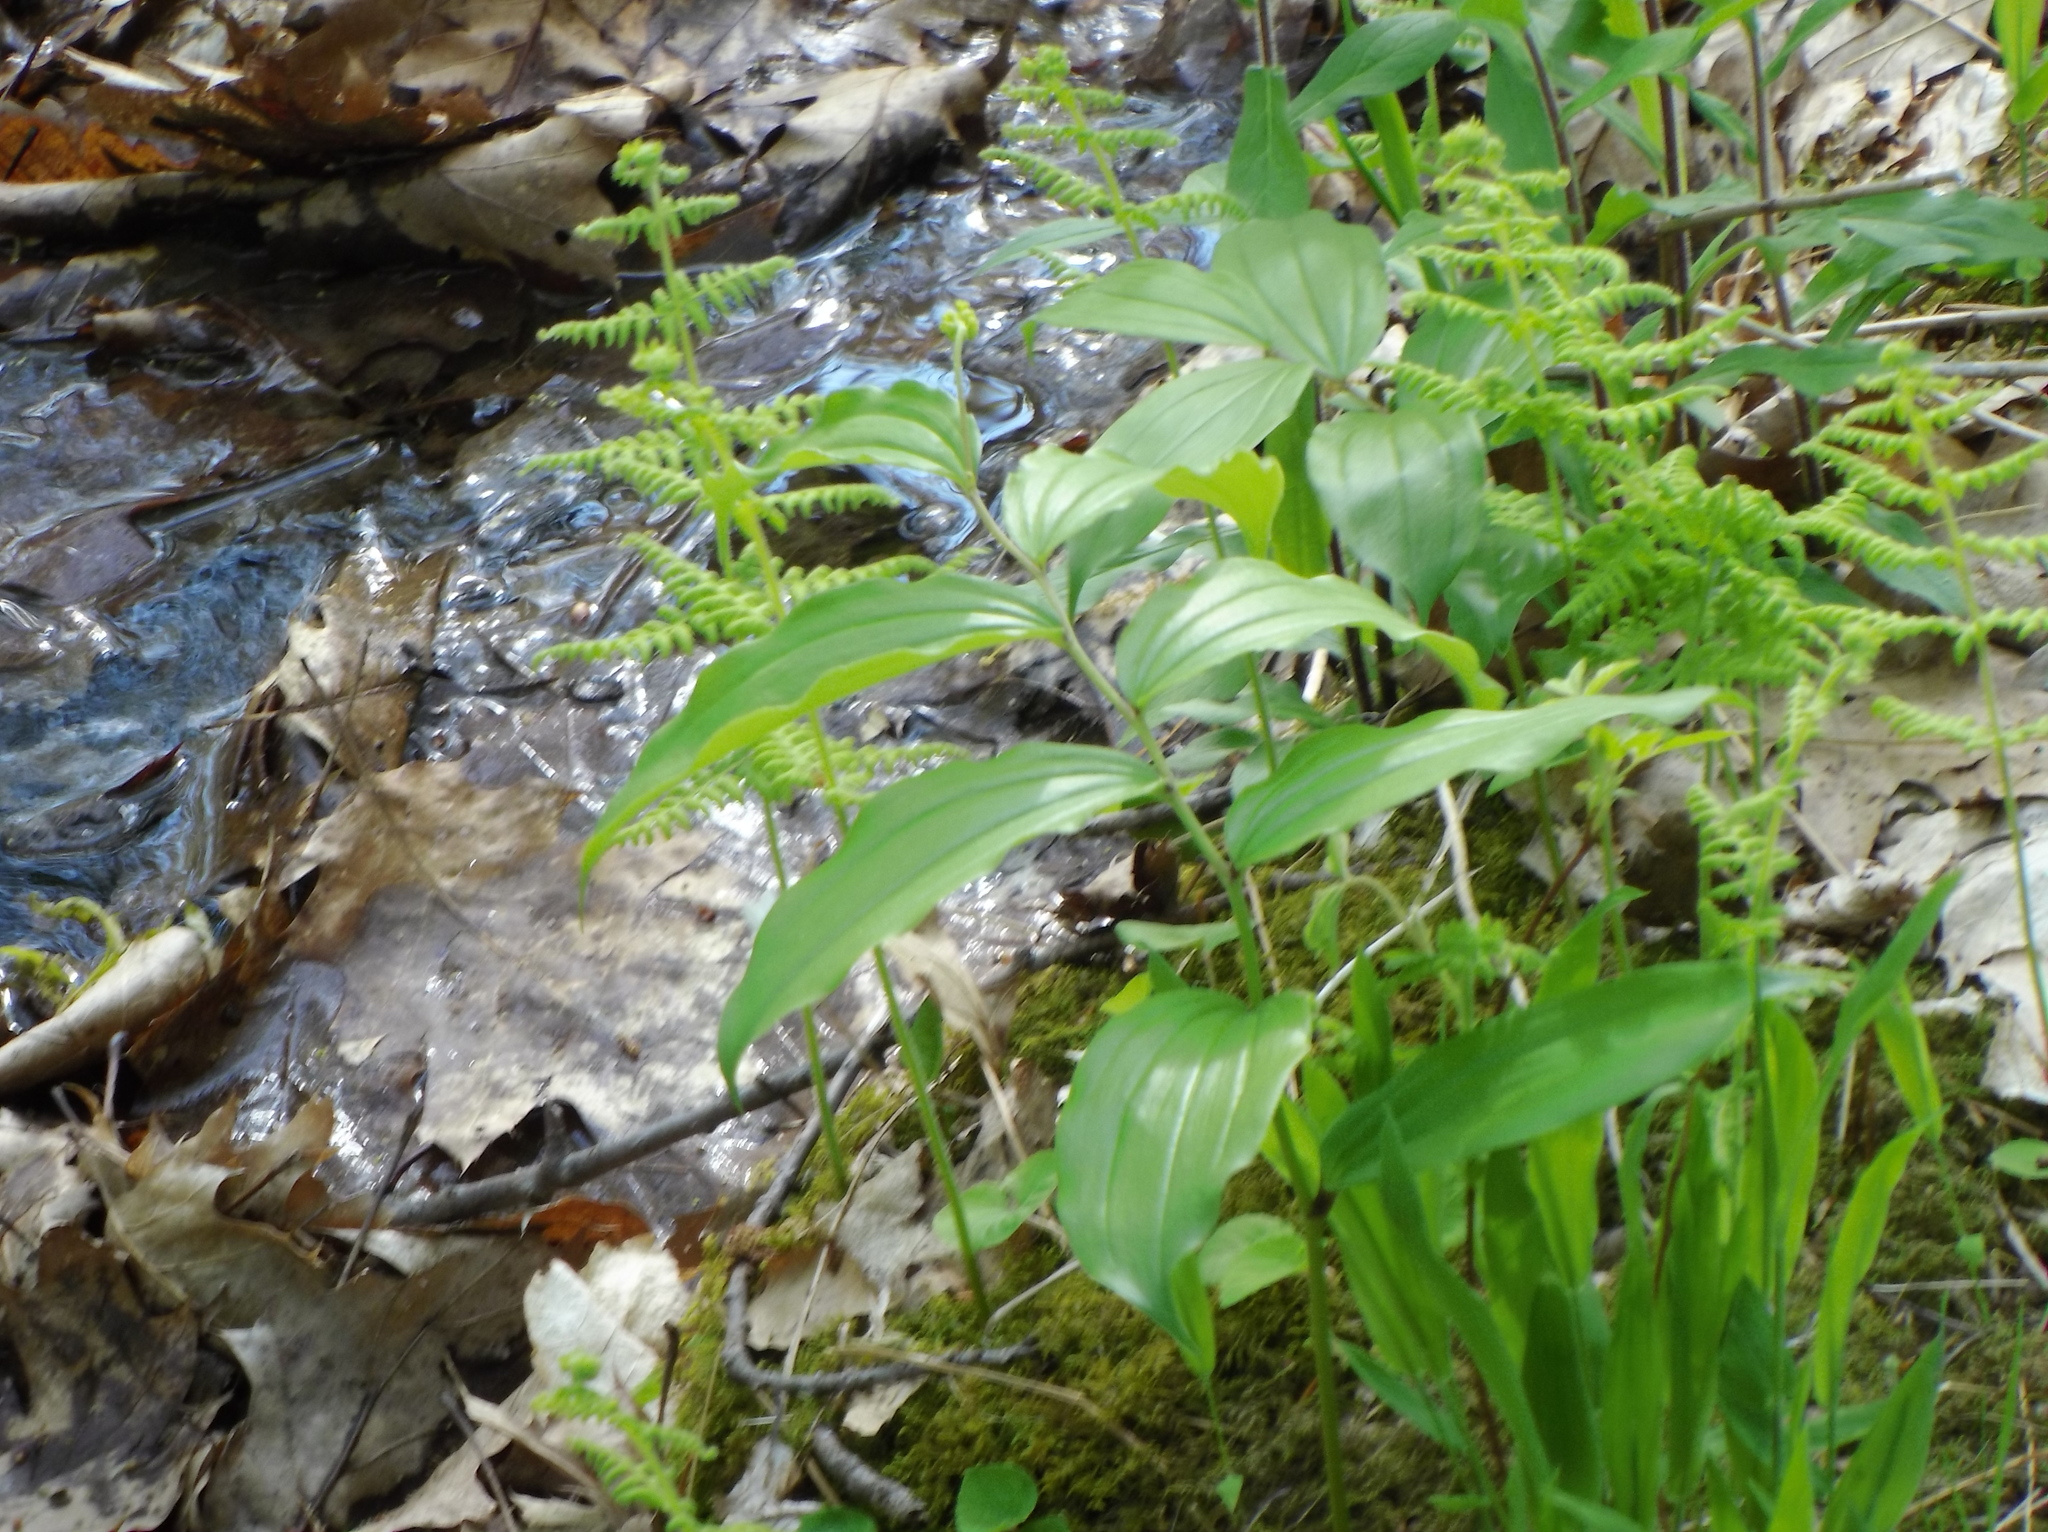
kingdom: Plantae
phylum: Tracheophyta
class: Liliopsida
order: Asparagales
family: Asparagaceae
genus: Maianthemum
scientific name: Maianthemum racemosum
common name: False spikenard
